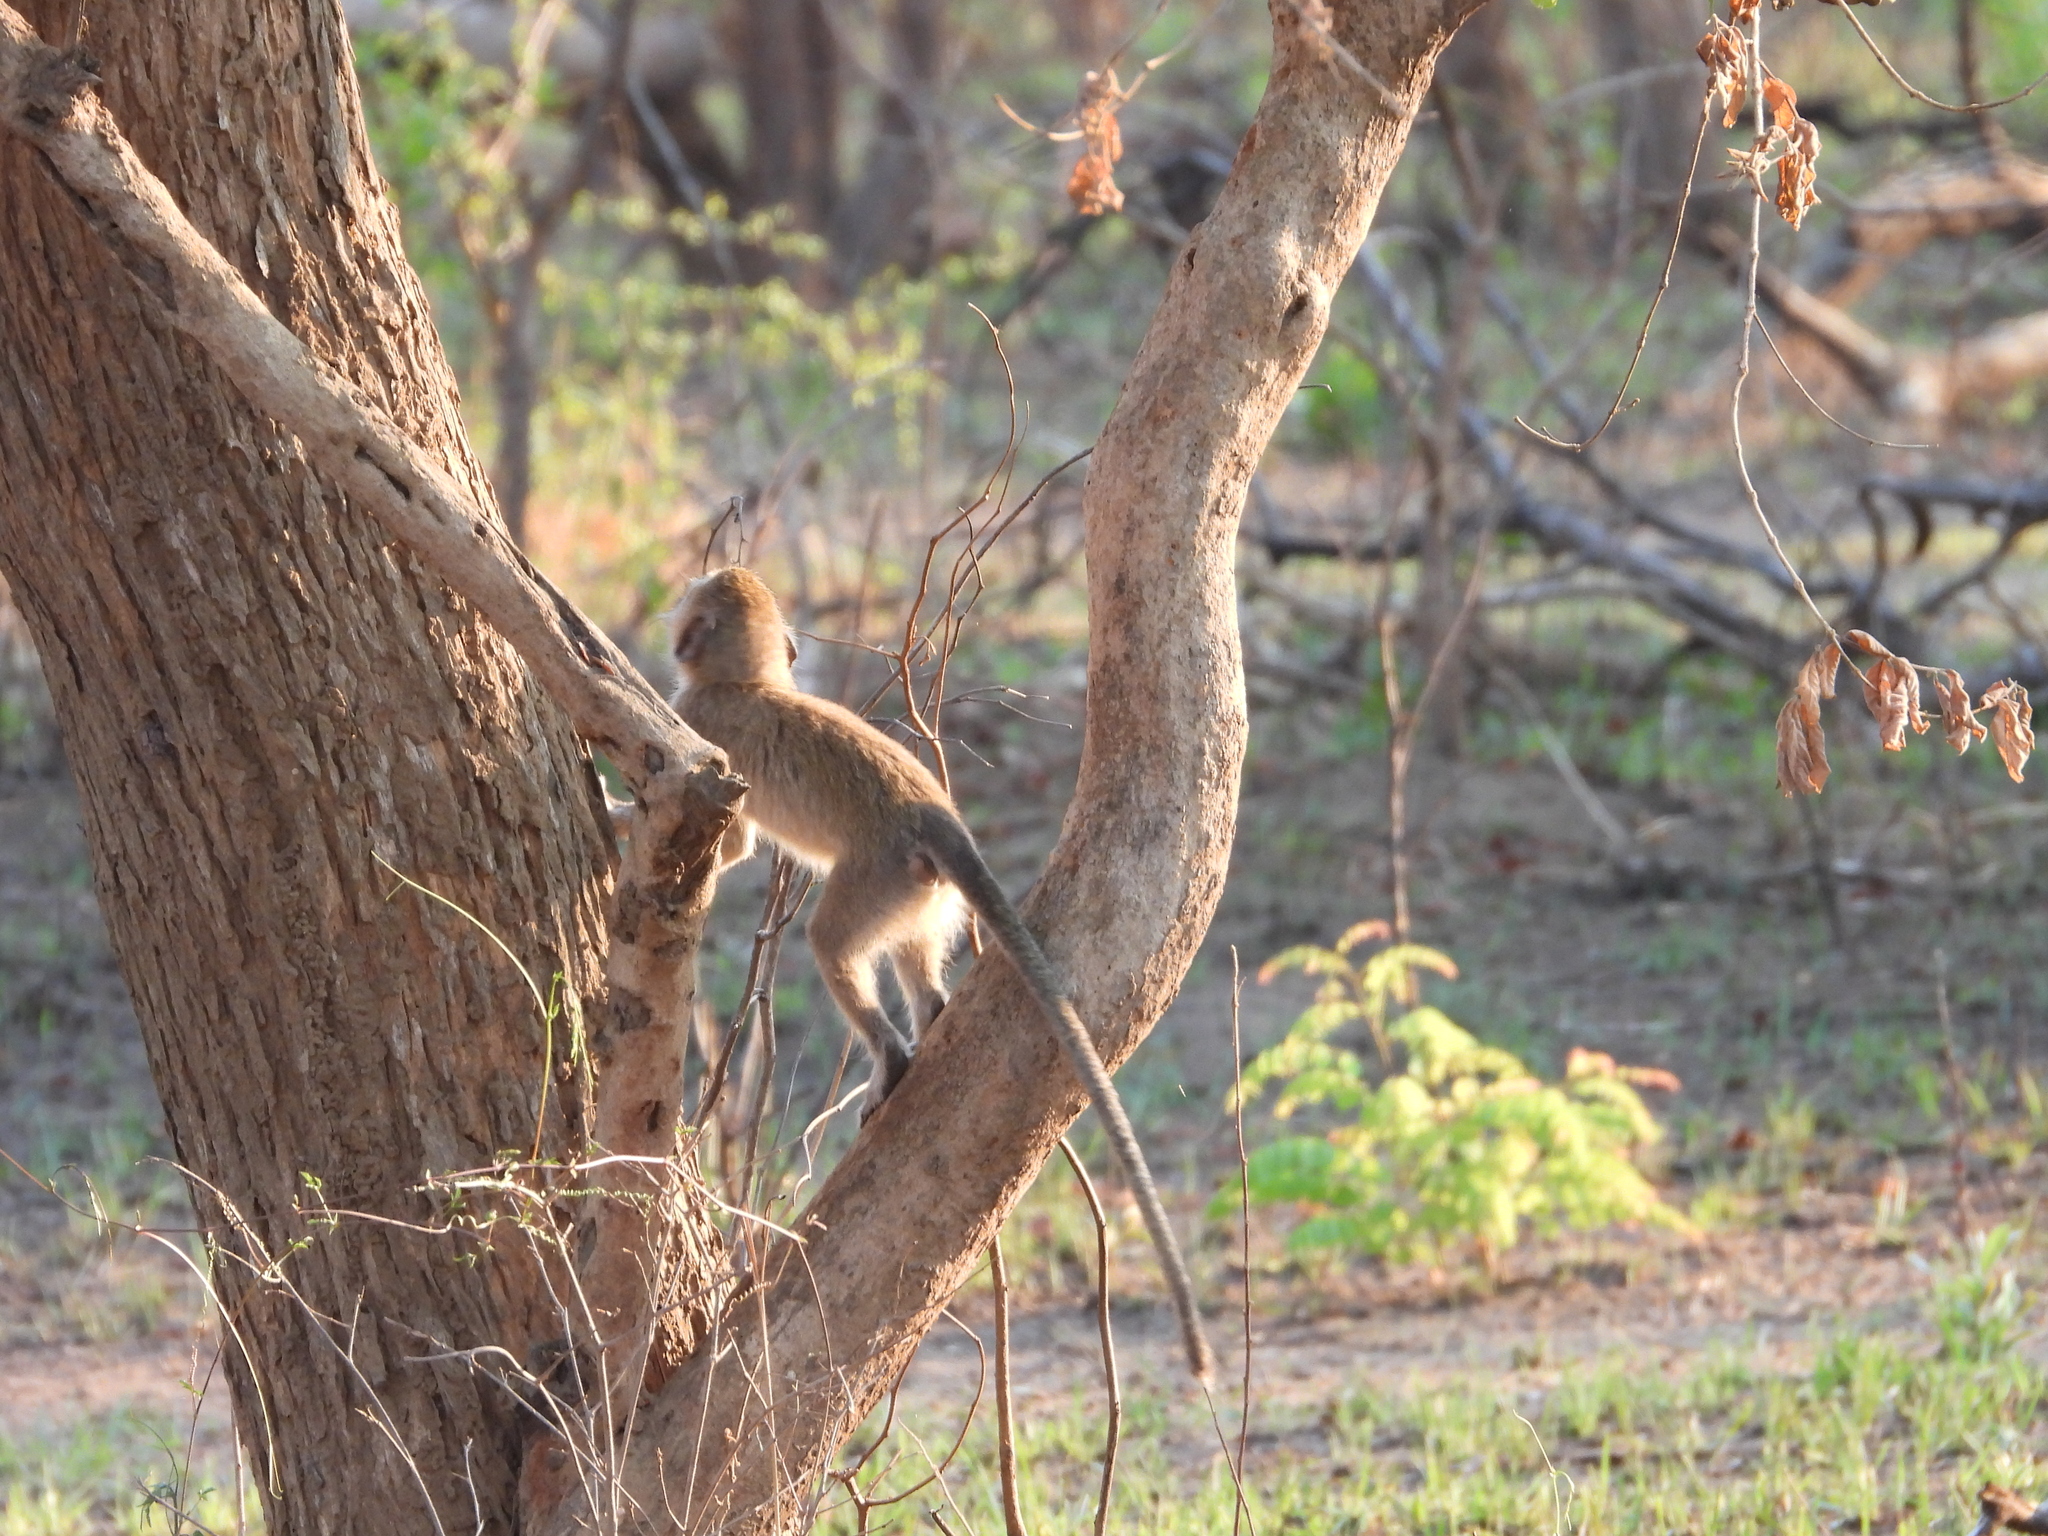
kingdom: Animalia
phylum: Chordata
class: Mammalia
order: Primates
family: Cercopithecidae
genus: Chlorocebus
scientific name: Chlorocebus cynosuros
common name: Malbrouck
